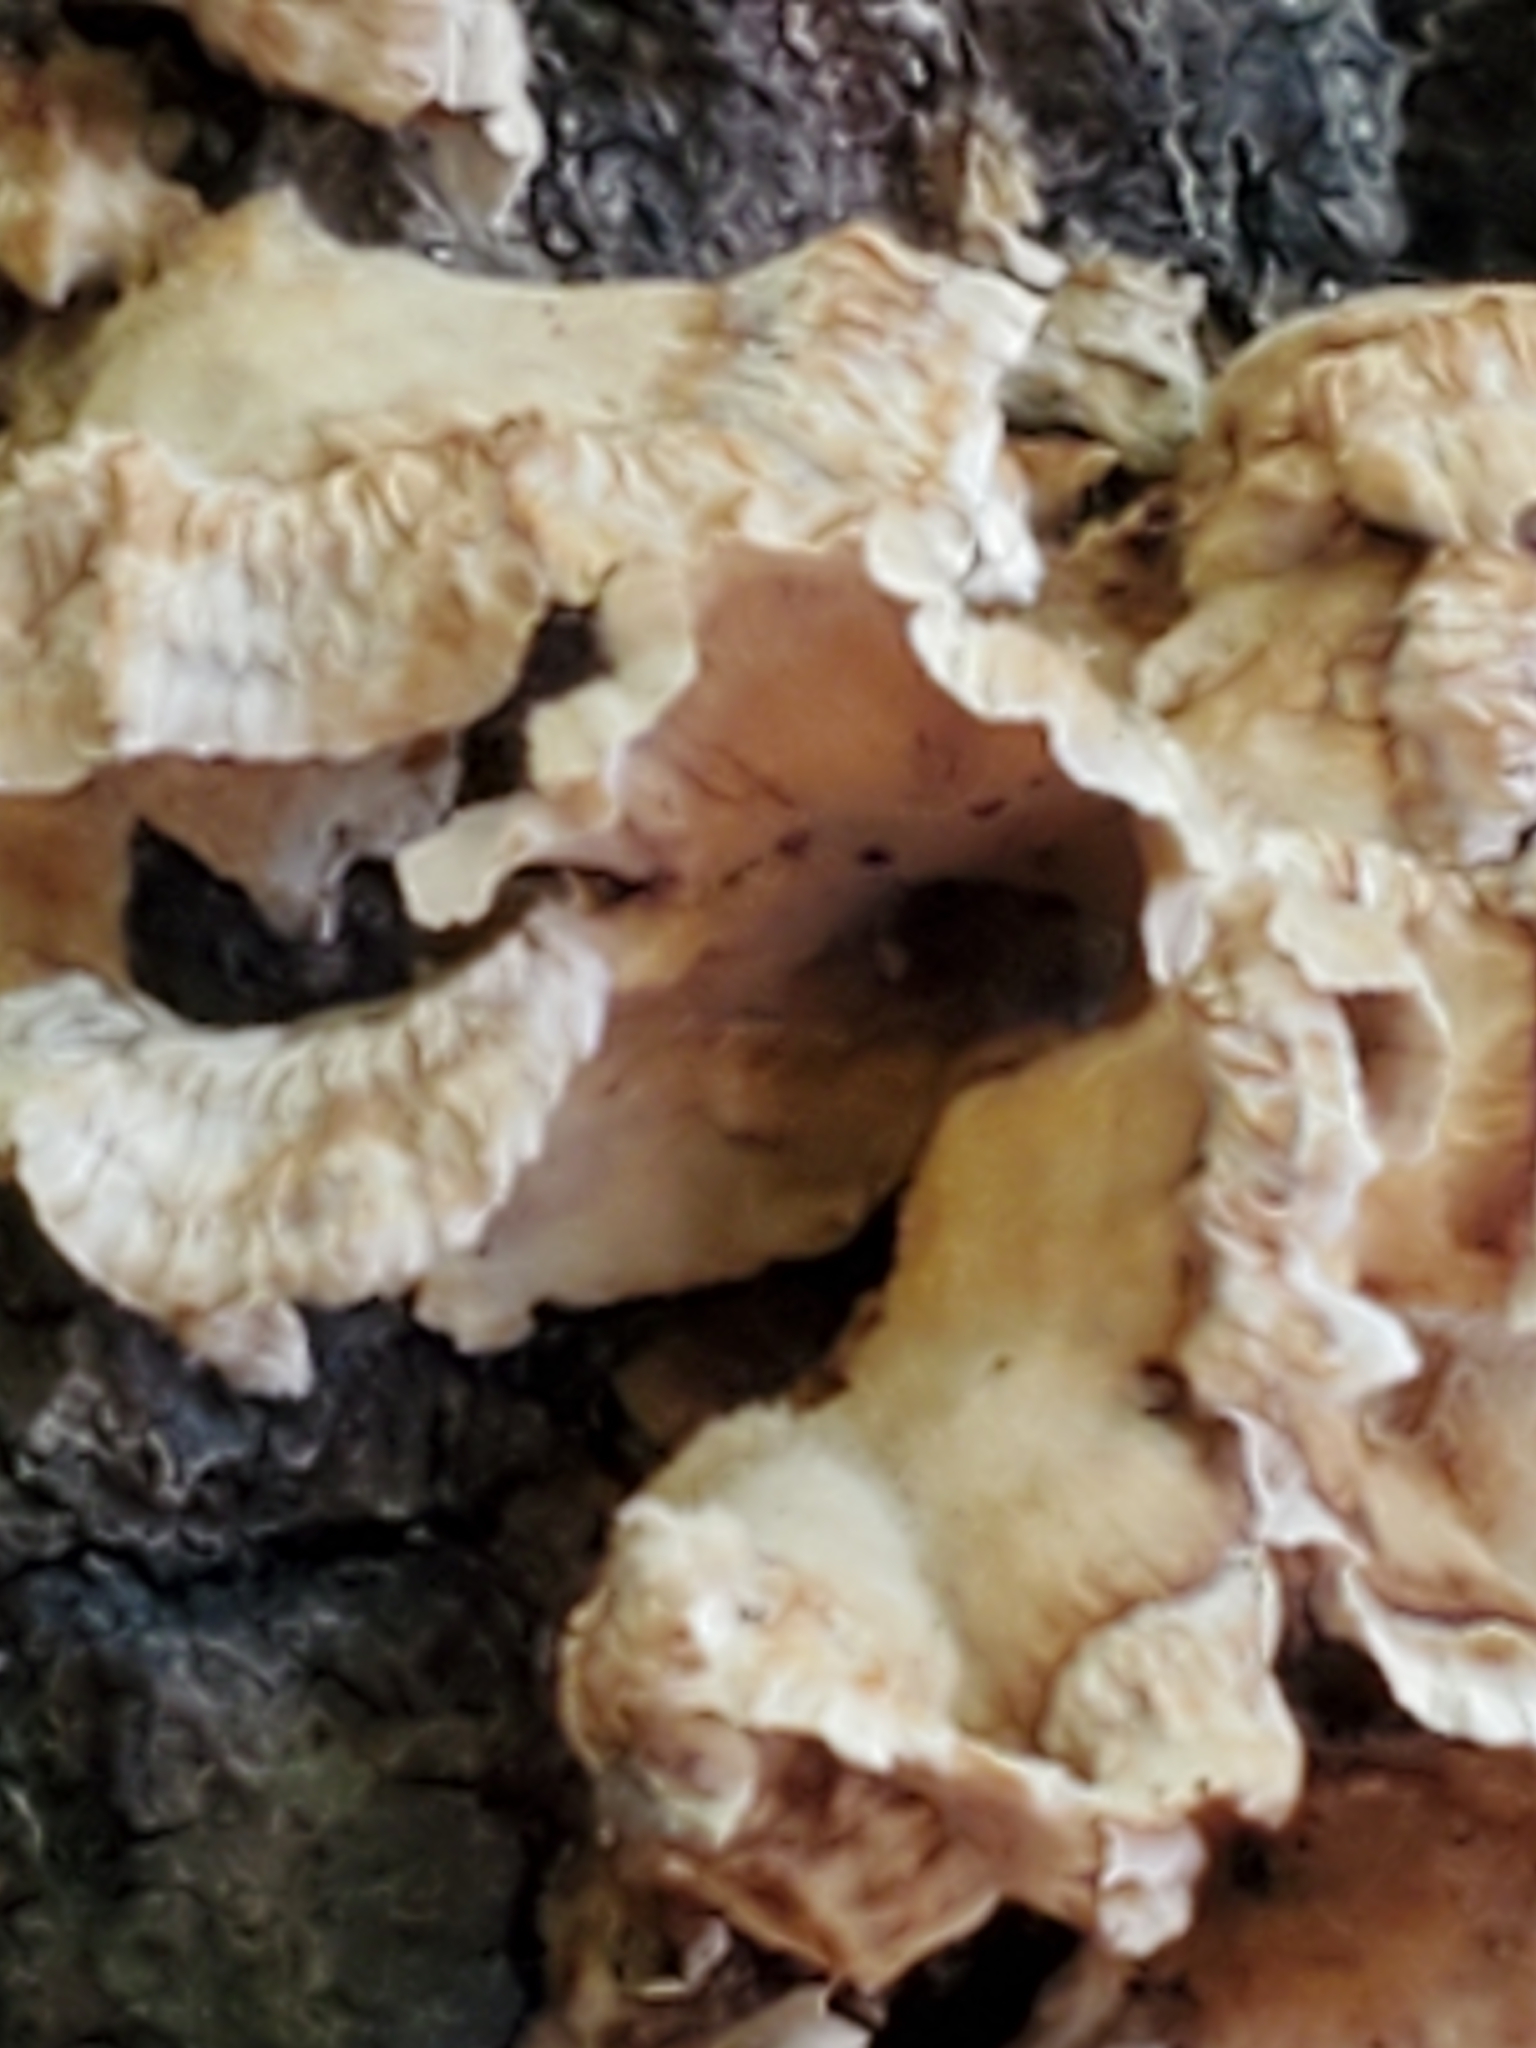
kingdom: Fungi
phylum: Basidiomycota
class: Agaricomycetes
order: Russulales
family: Stereaceae
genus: Stereum
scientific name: Stereum complicatum
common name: Crowded parchment
